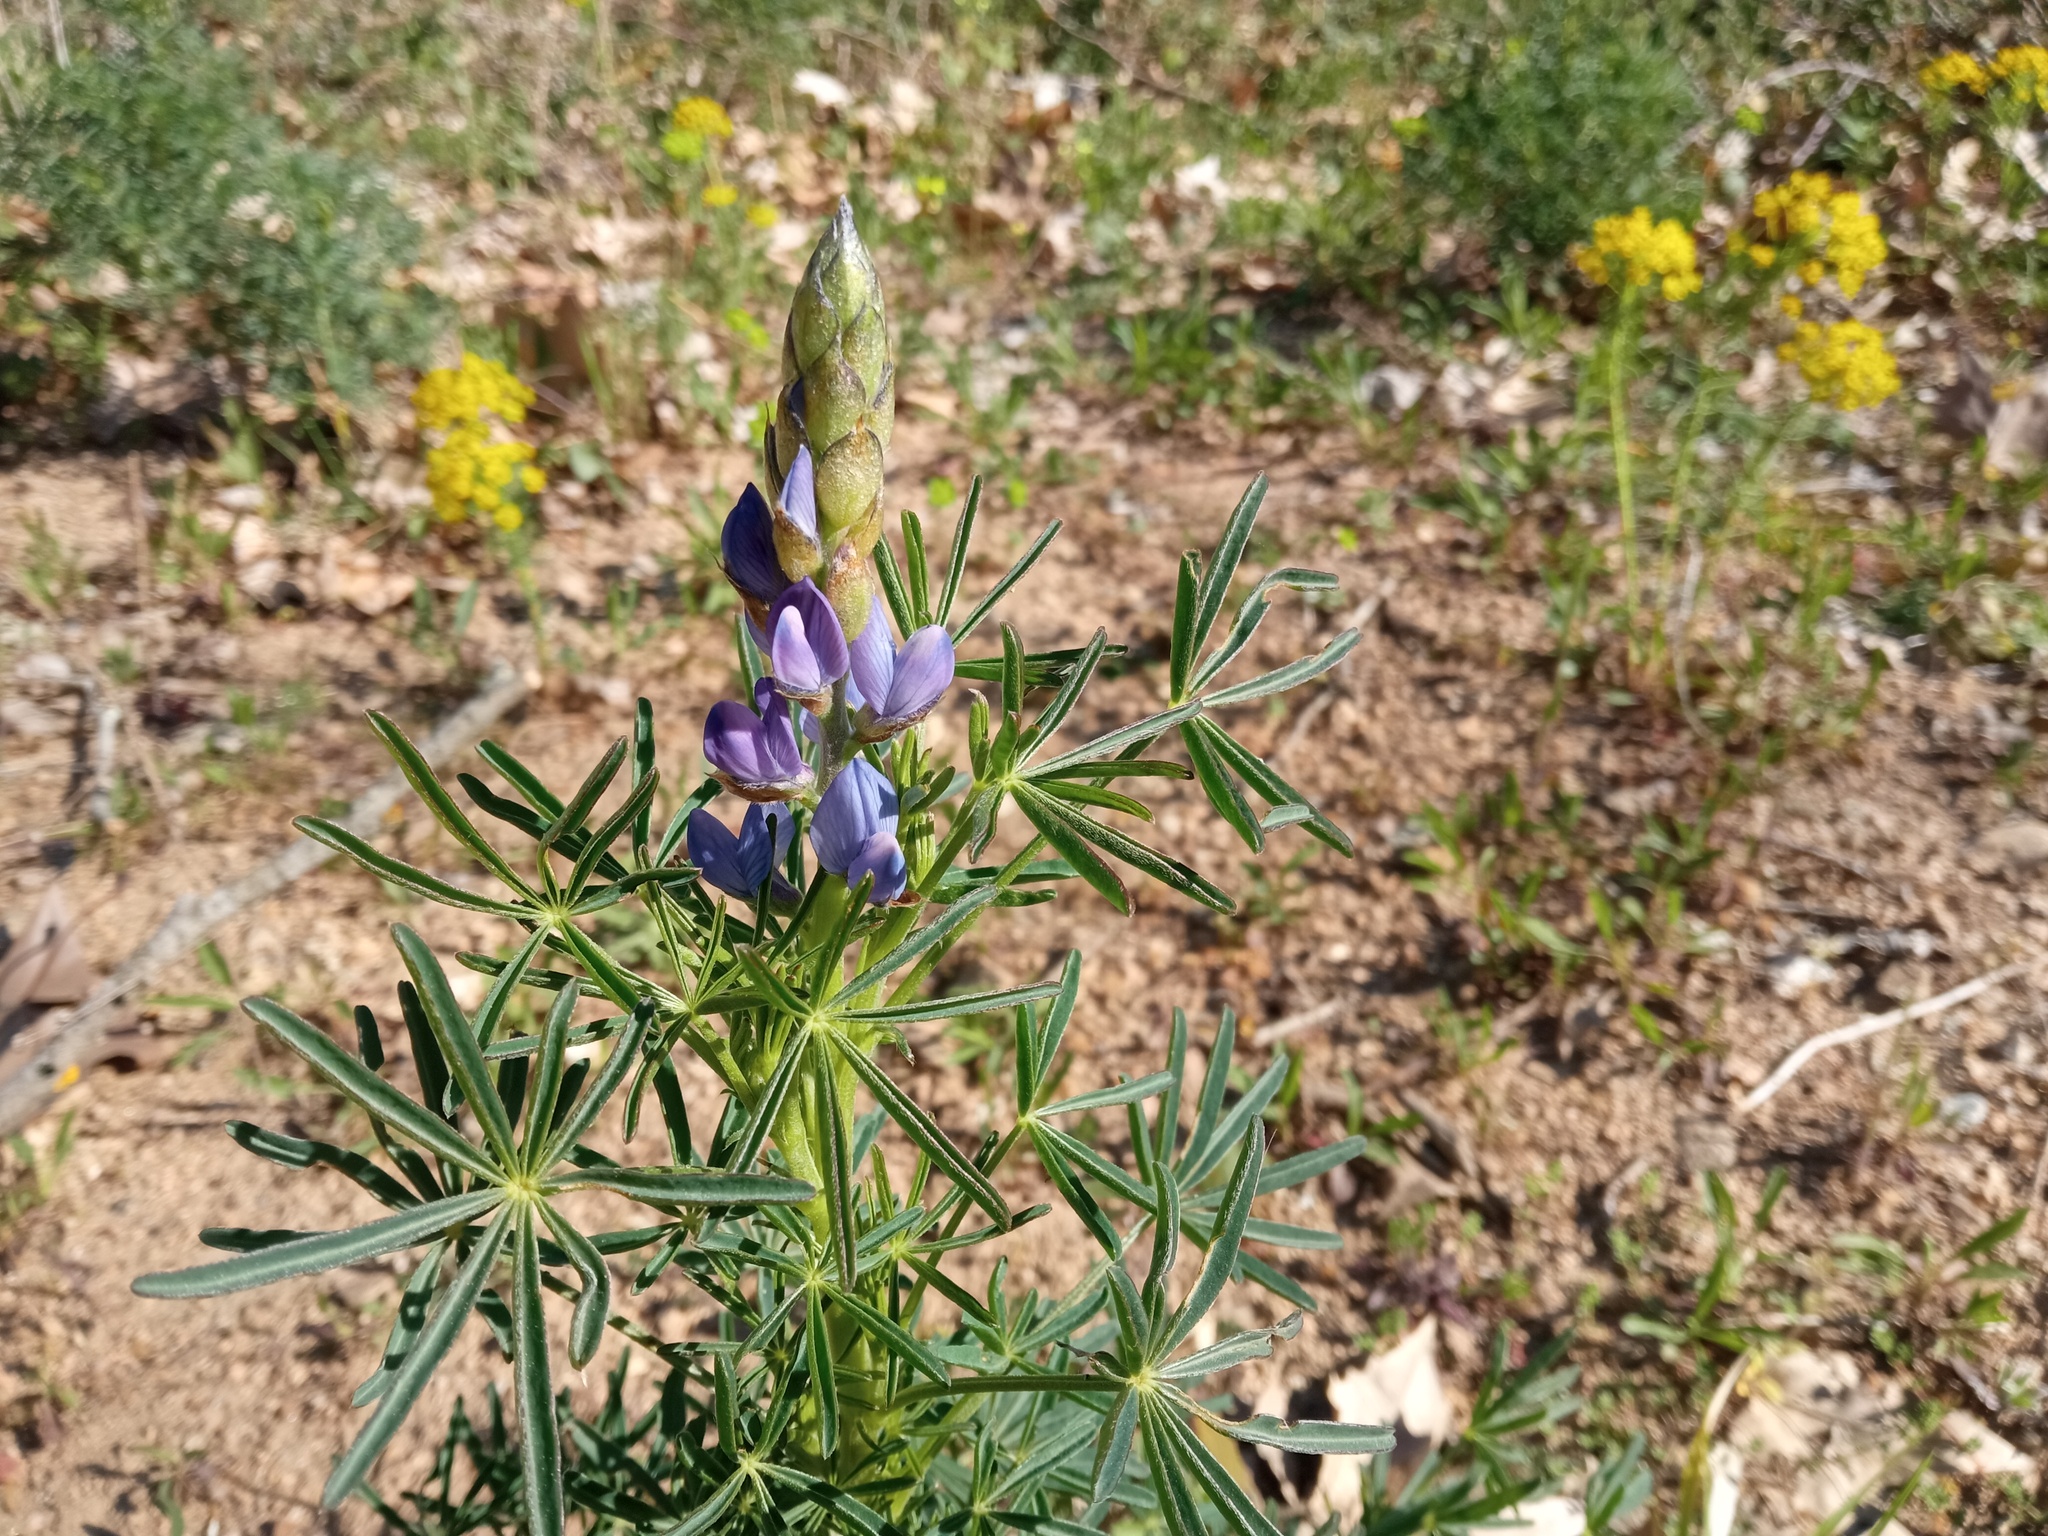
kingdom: Plantae
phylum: Tracheophyta
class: Magnoliopsida
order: Fabales
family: Fabaceae
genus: Lupinus
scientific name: Lupinus angustifolius
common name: Narrow-leaved lupin
